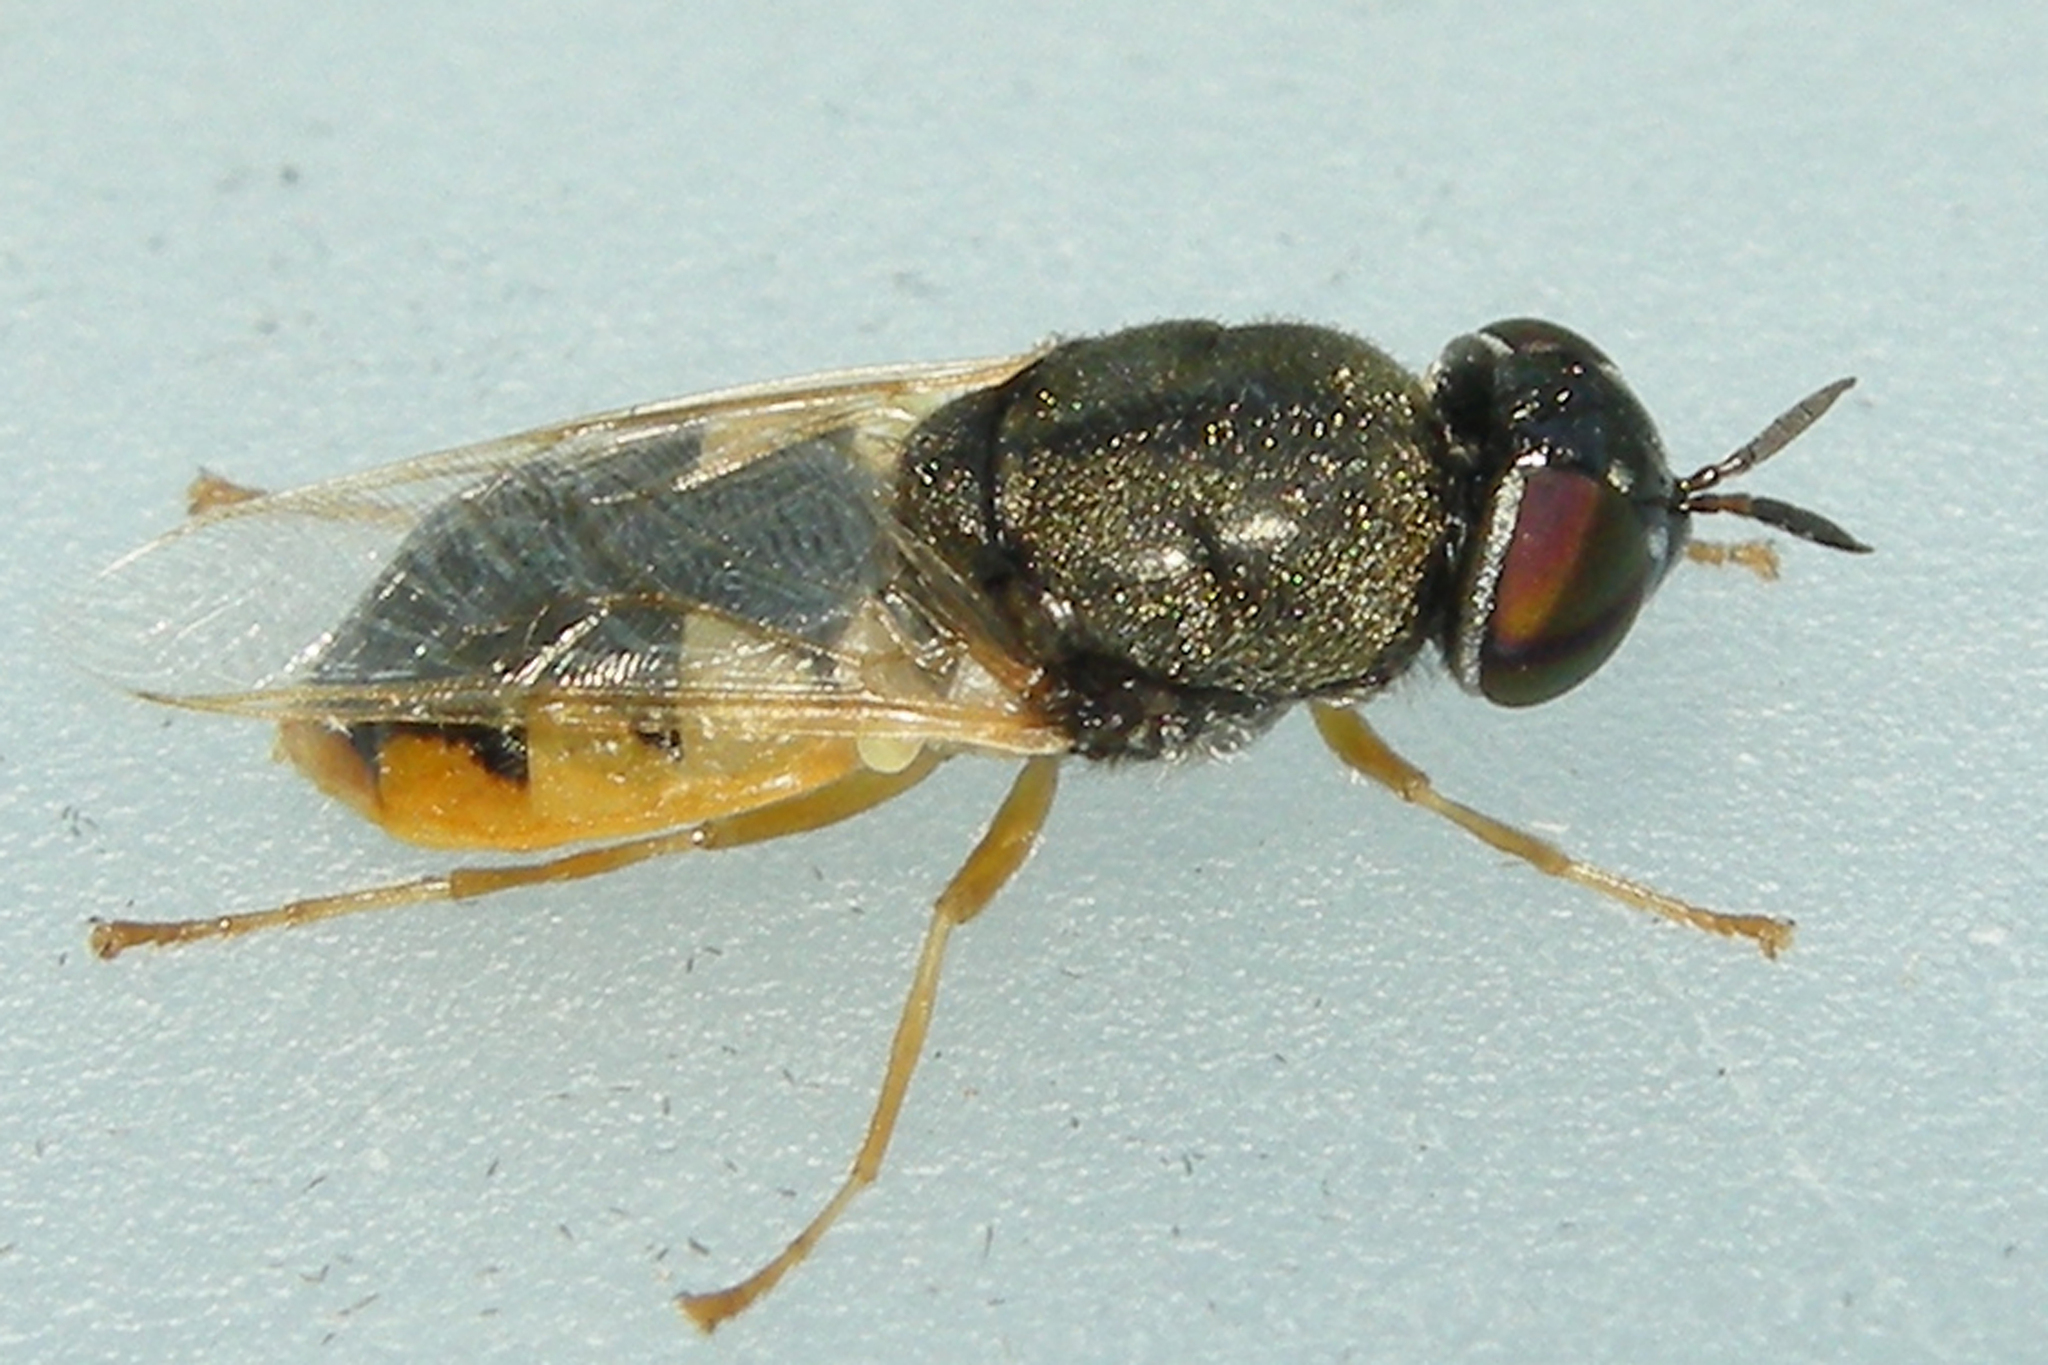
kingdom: Animalia
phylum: Arthropoda
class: Insecta
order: Diptera
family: Stratiomyidae
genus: Odontomyia
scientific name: Odontomyia virgo
